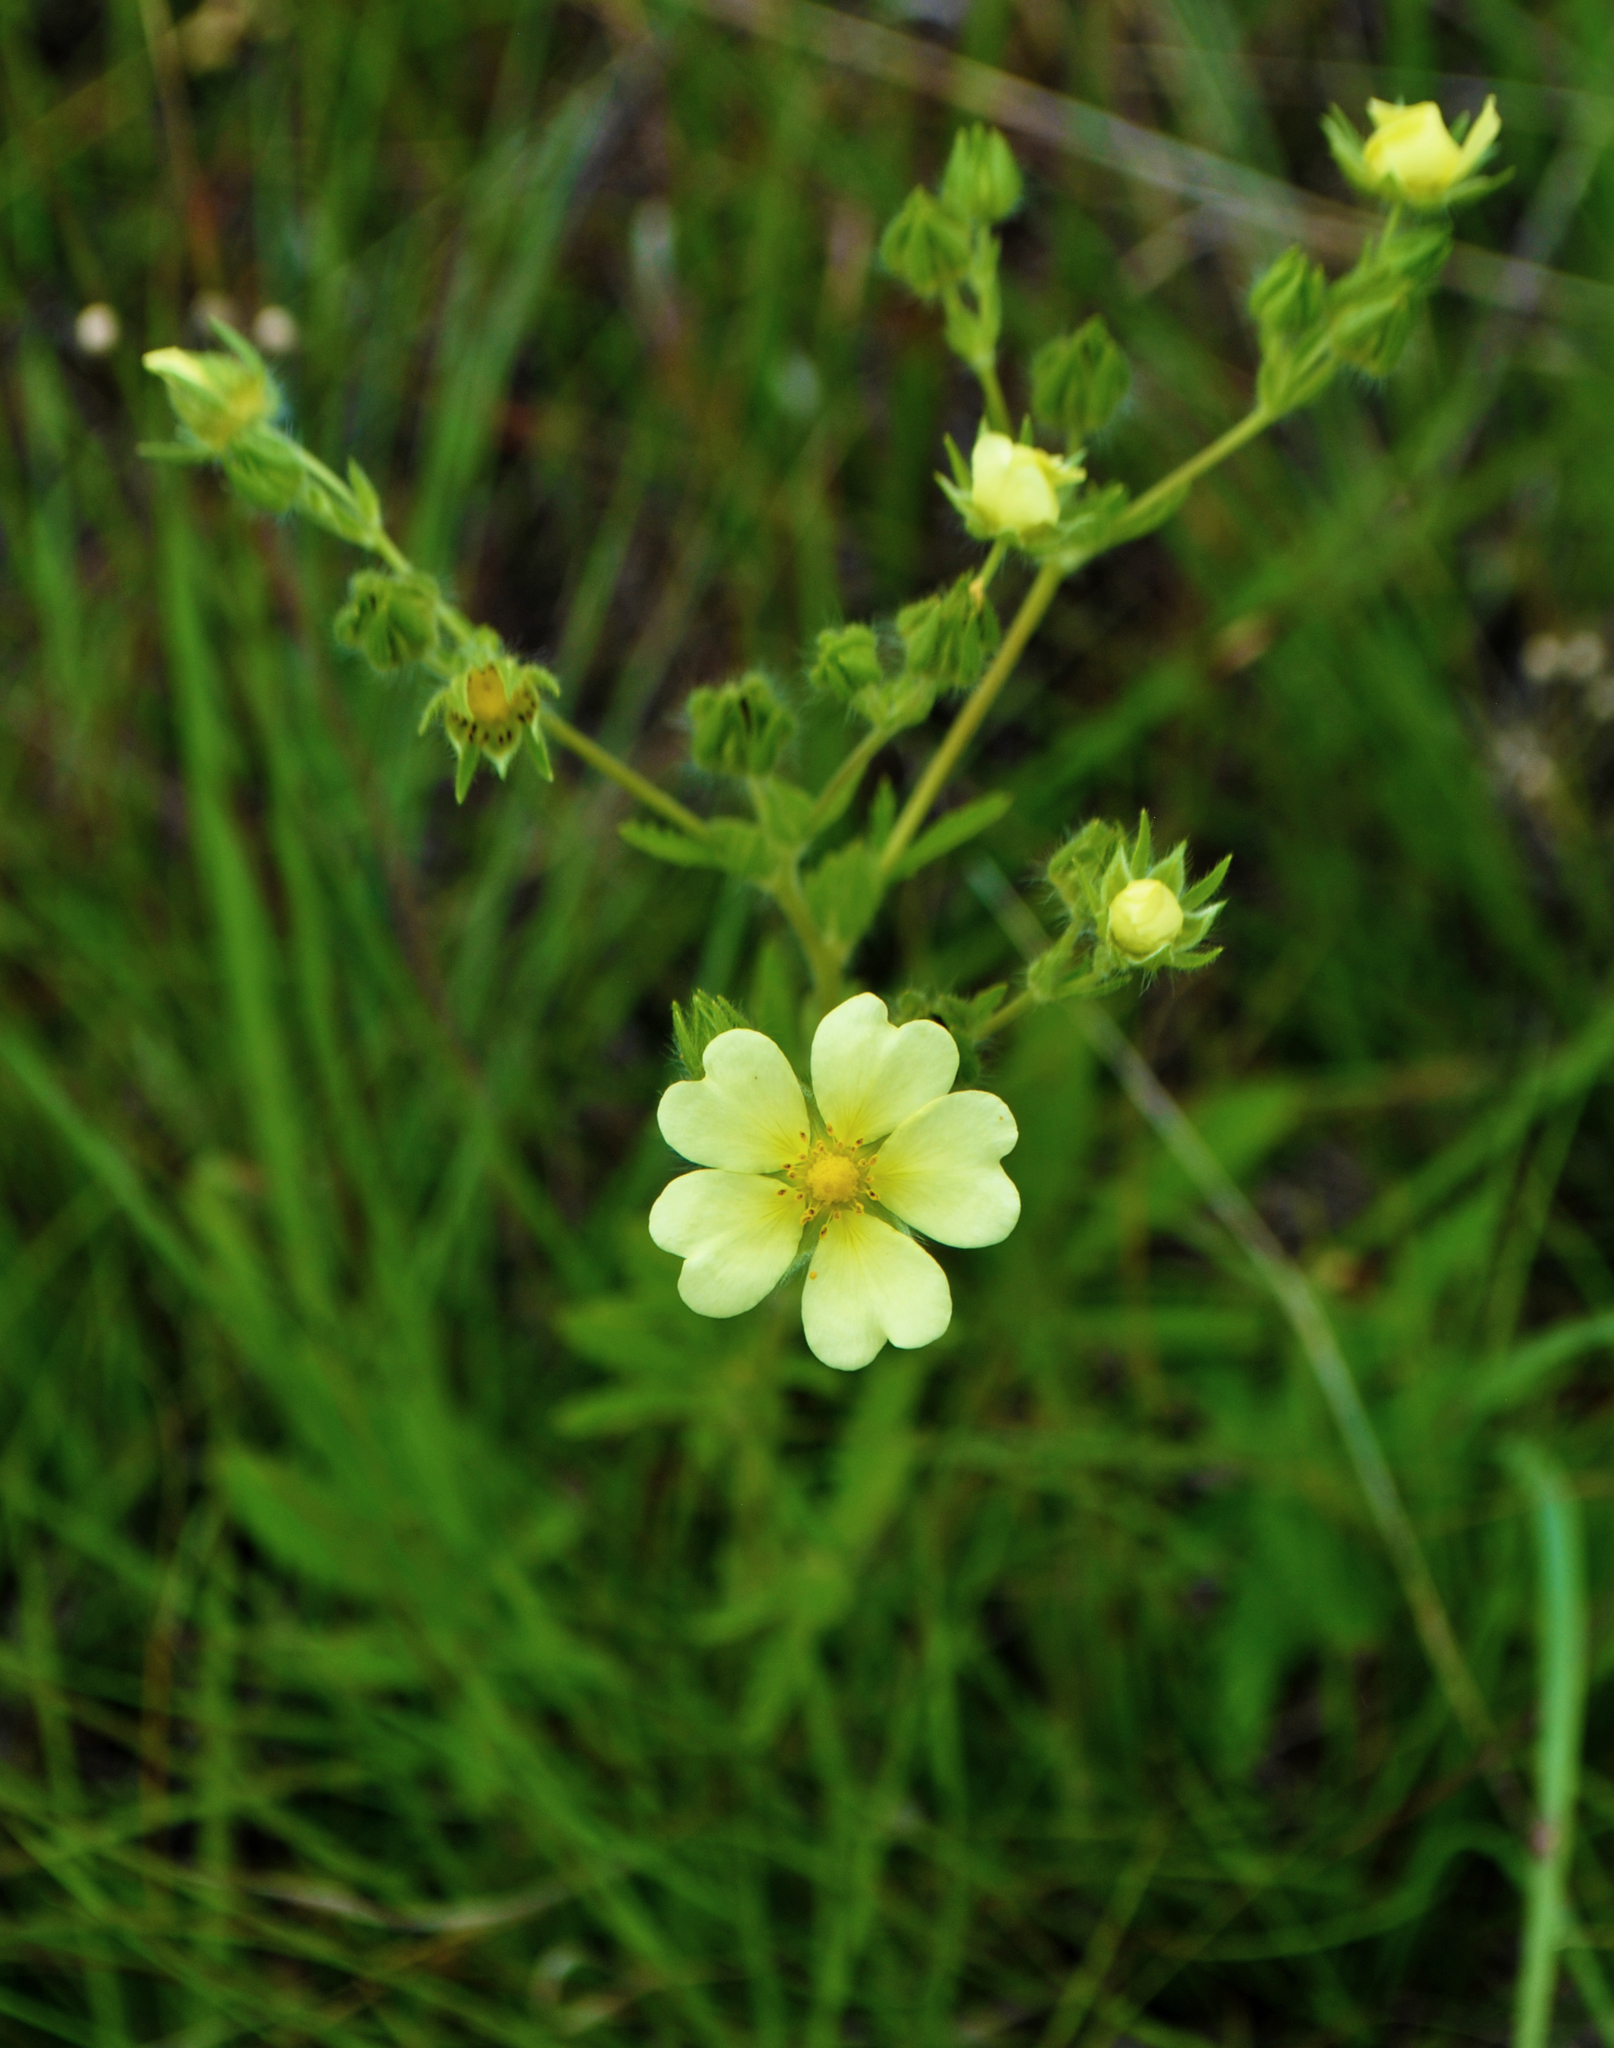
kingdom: Plantae
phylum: Tracheophyta
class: Magnoliopsida
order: Rosales
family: Rosaceae
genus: Potentilla
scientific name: Potentilla recta
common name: Sulphur cinquefoil
